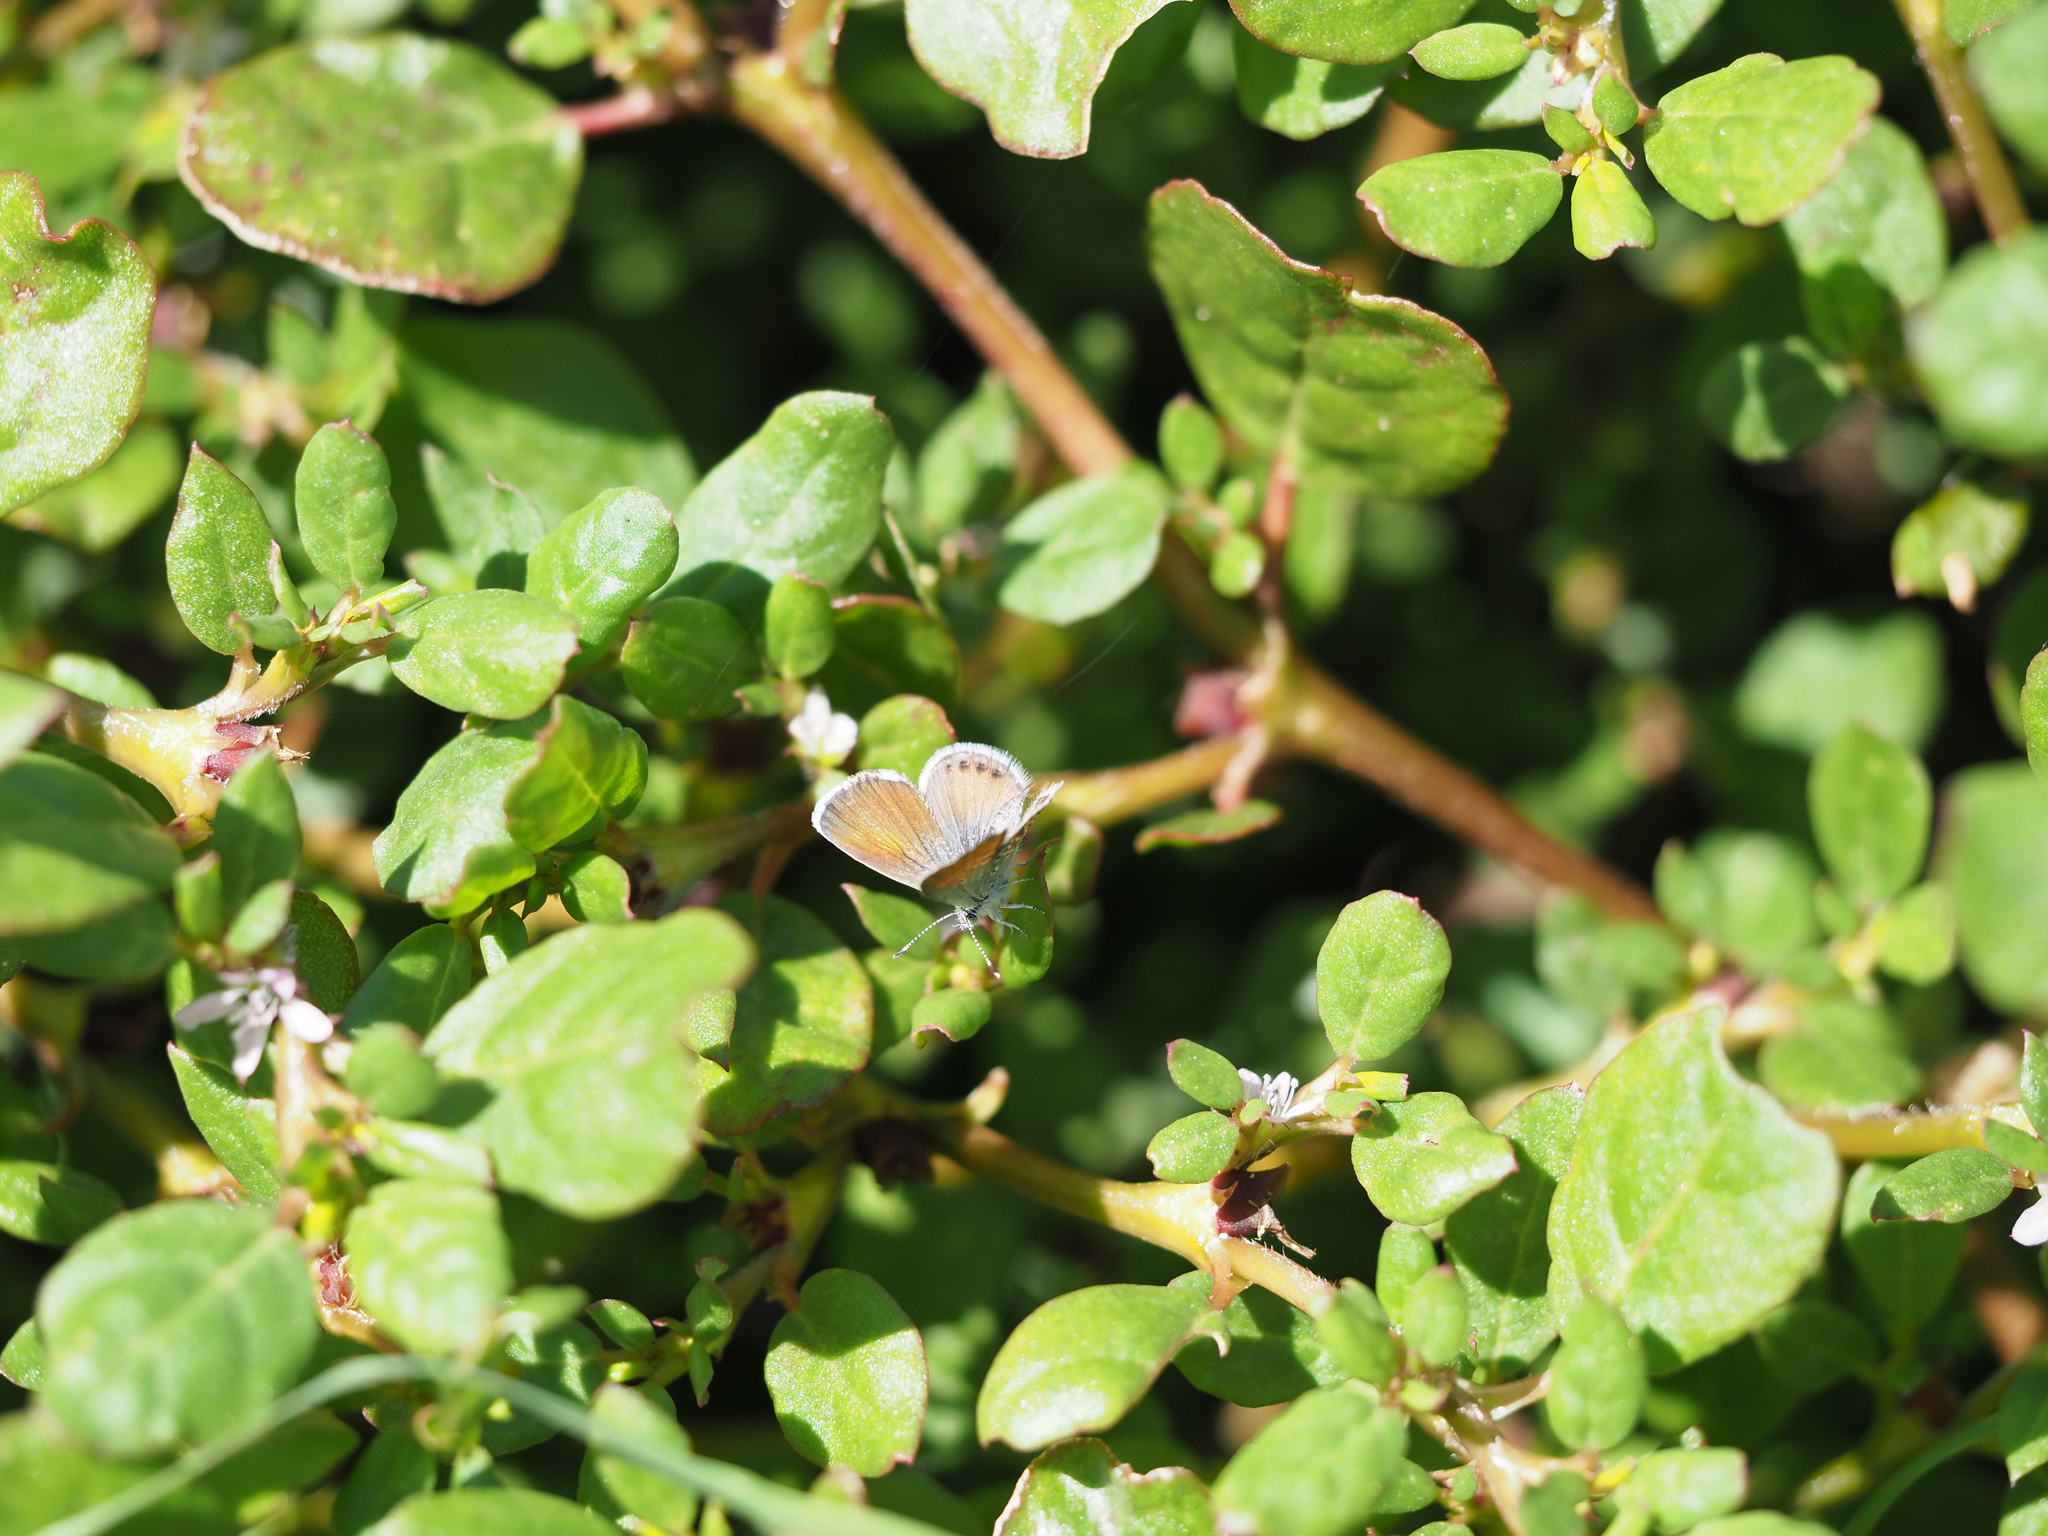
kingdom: Animalia
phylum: Arthropoda
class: Insecta
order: Lepidoptera
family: Lycaenidae
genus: Brephidium
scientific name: Brephidium exilis
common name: Pygmy blue
